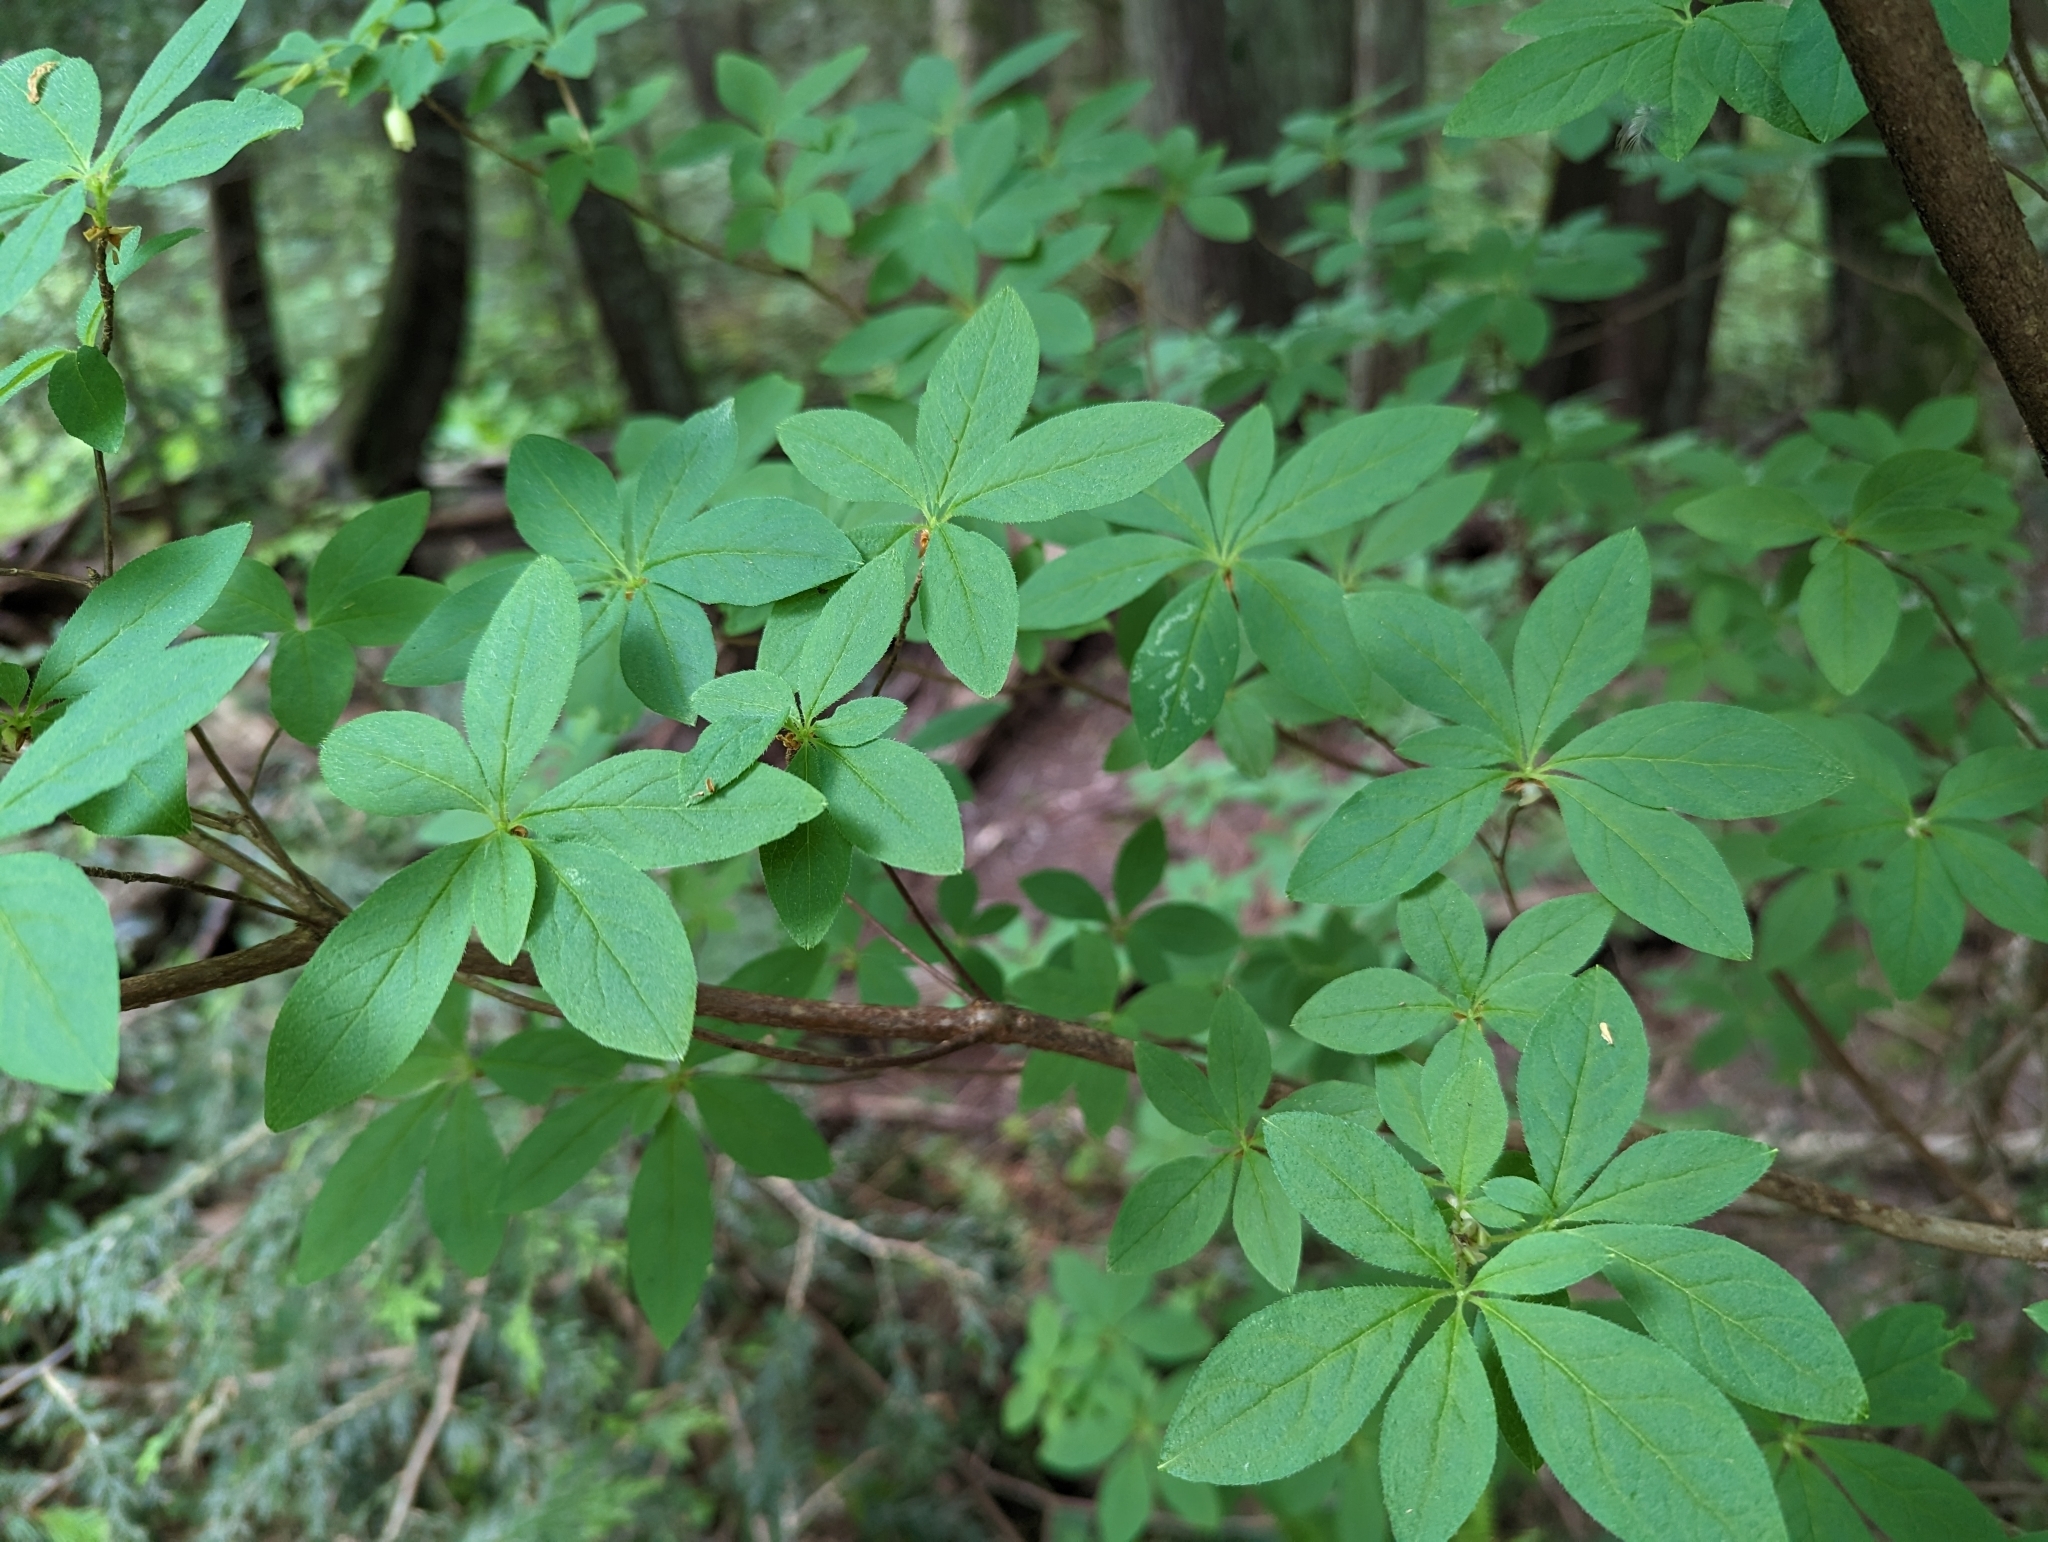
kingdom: Plantae
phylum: Tracheophyta
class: Magnoliopsida
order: Ericales
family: Ericaceae
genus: Rhododendron
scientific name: Rhododendron menziesii
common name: Pacific menziesia
